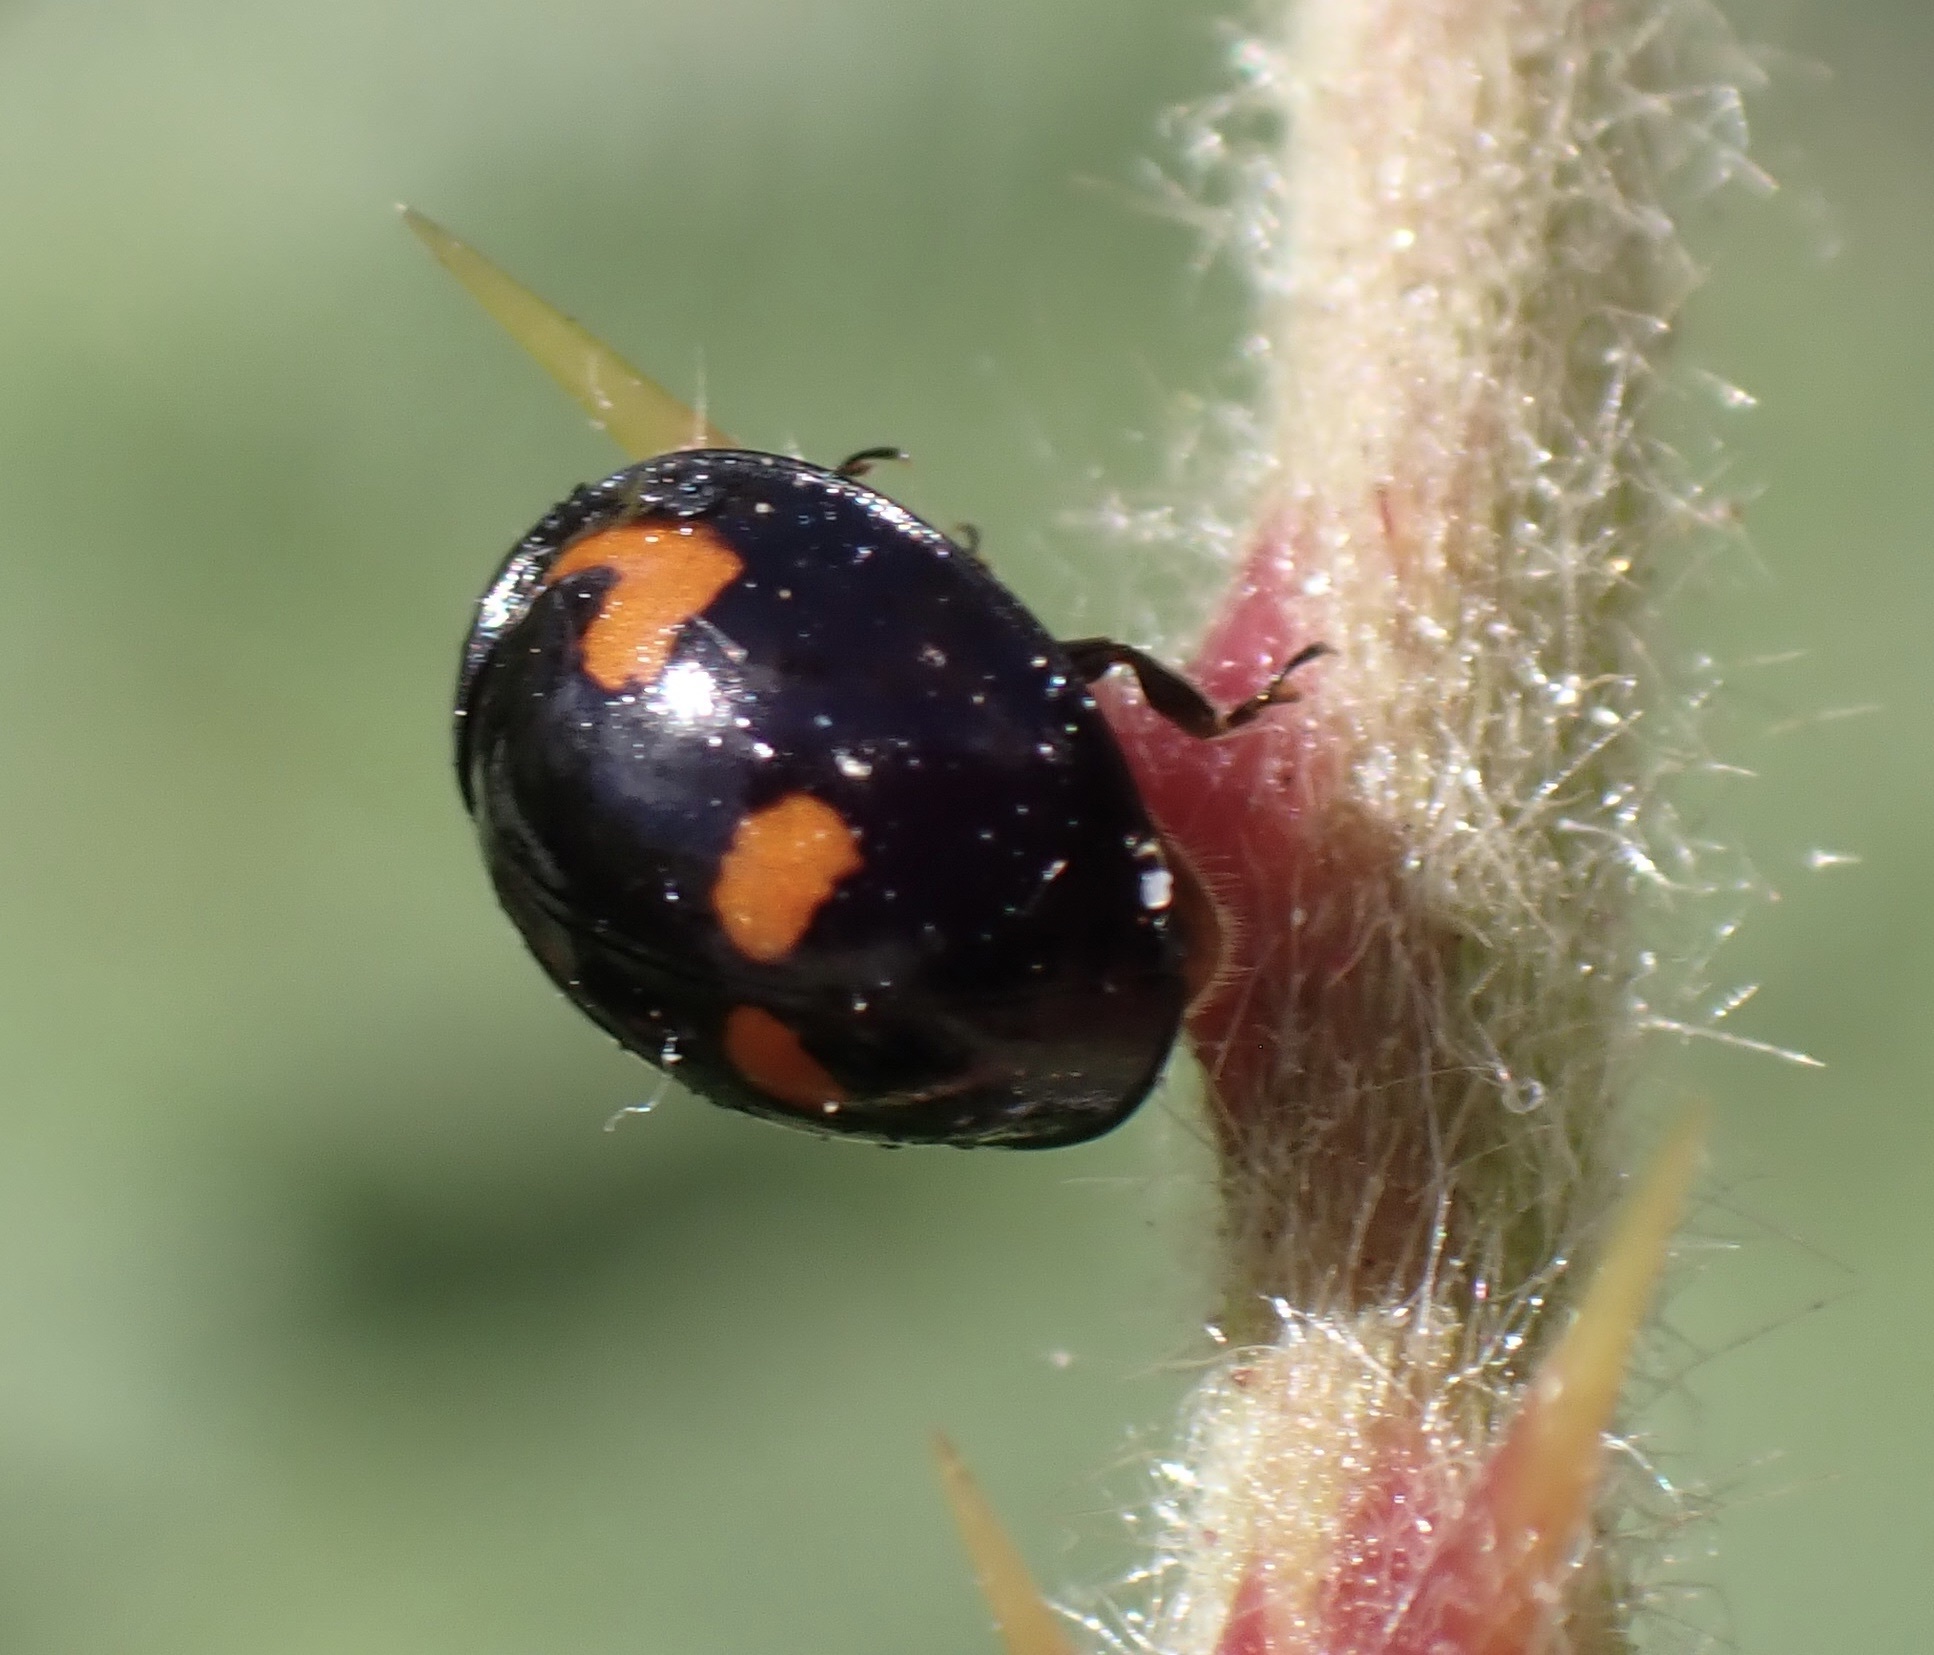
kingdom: Animalia
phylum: Arthropoda
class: Insecta
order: Coleoptera
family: Coccinellidae
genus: Brumus
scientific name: Brumus quadripustulatus
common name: Ladybird beetle
